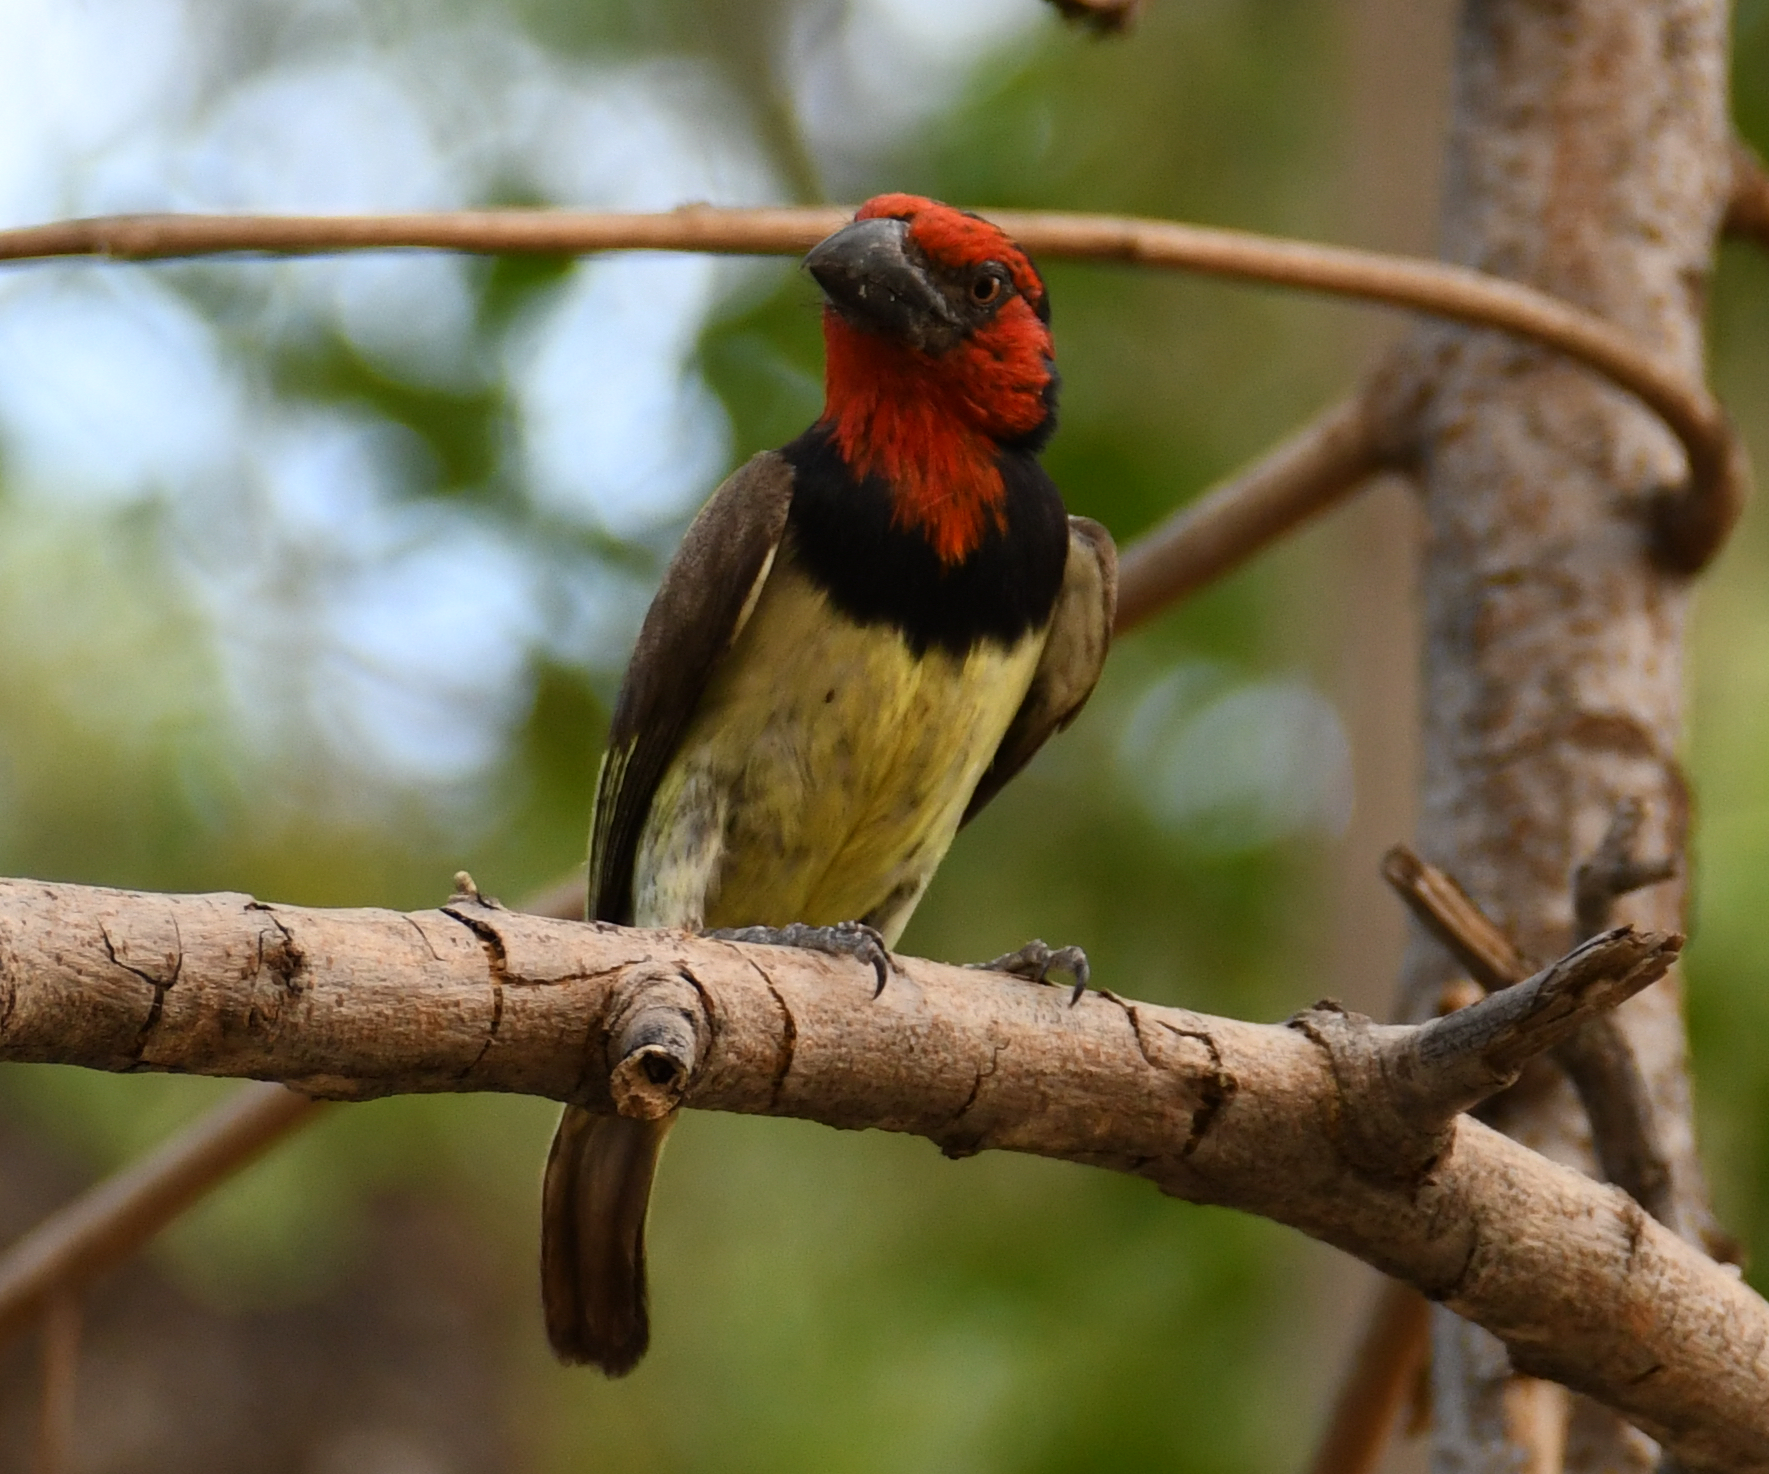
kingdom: Animalia
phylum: Chordata
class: Aves
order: Piciformes
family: Lybiidae
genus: Lybius
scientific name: Lybius torquatus
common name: Black-collared barbet
